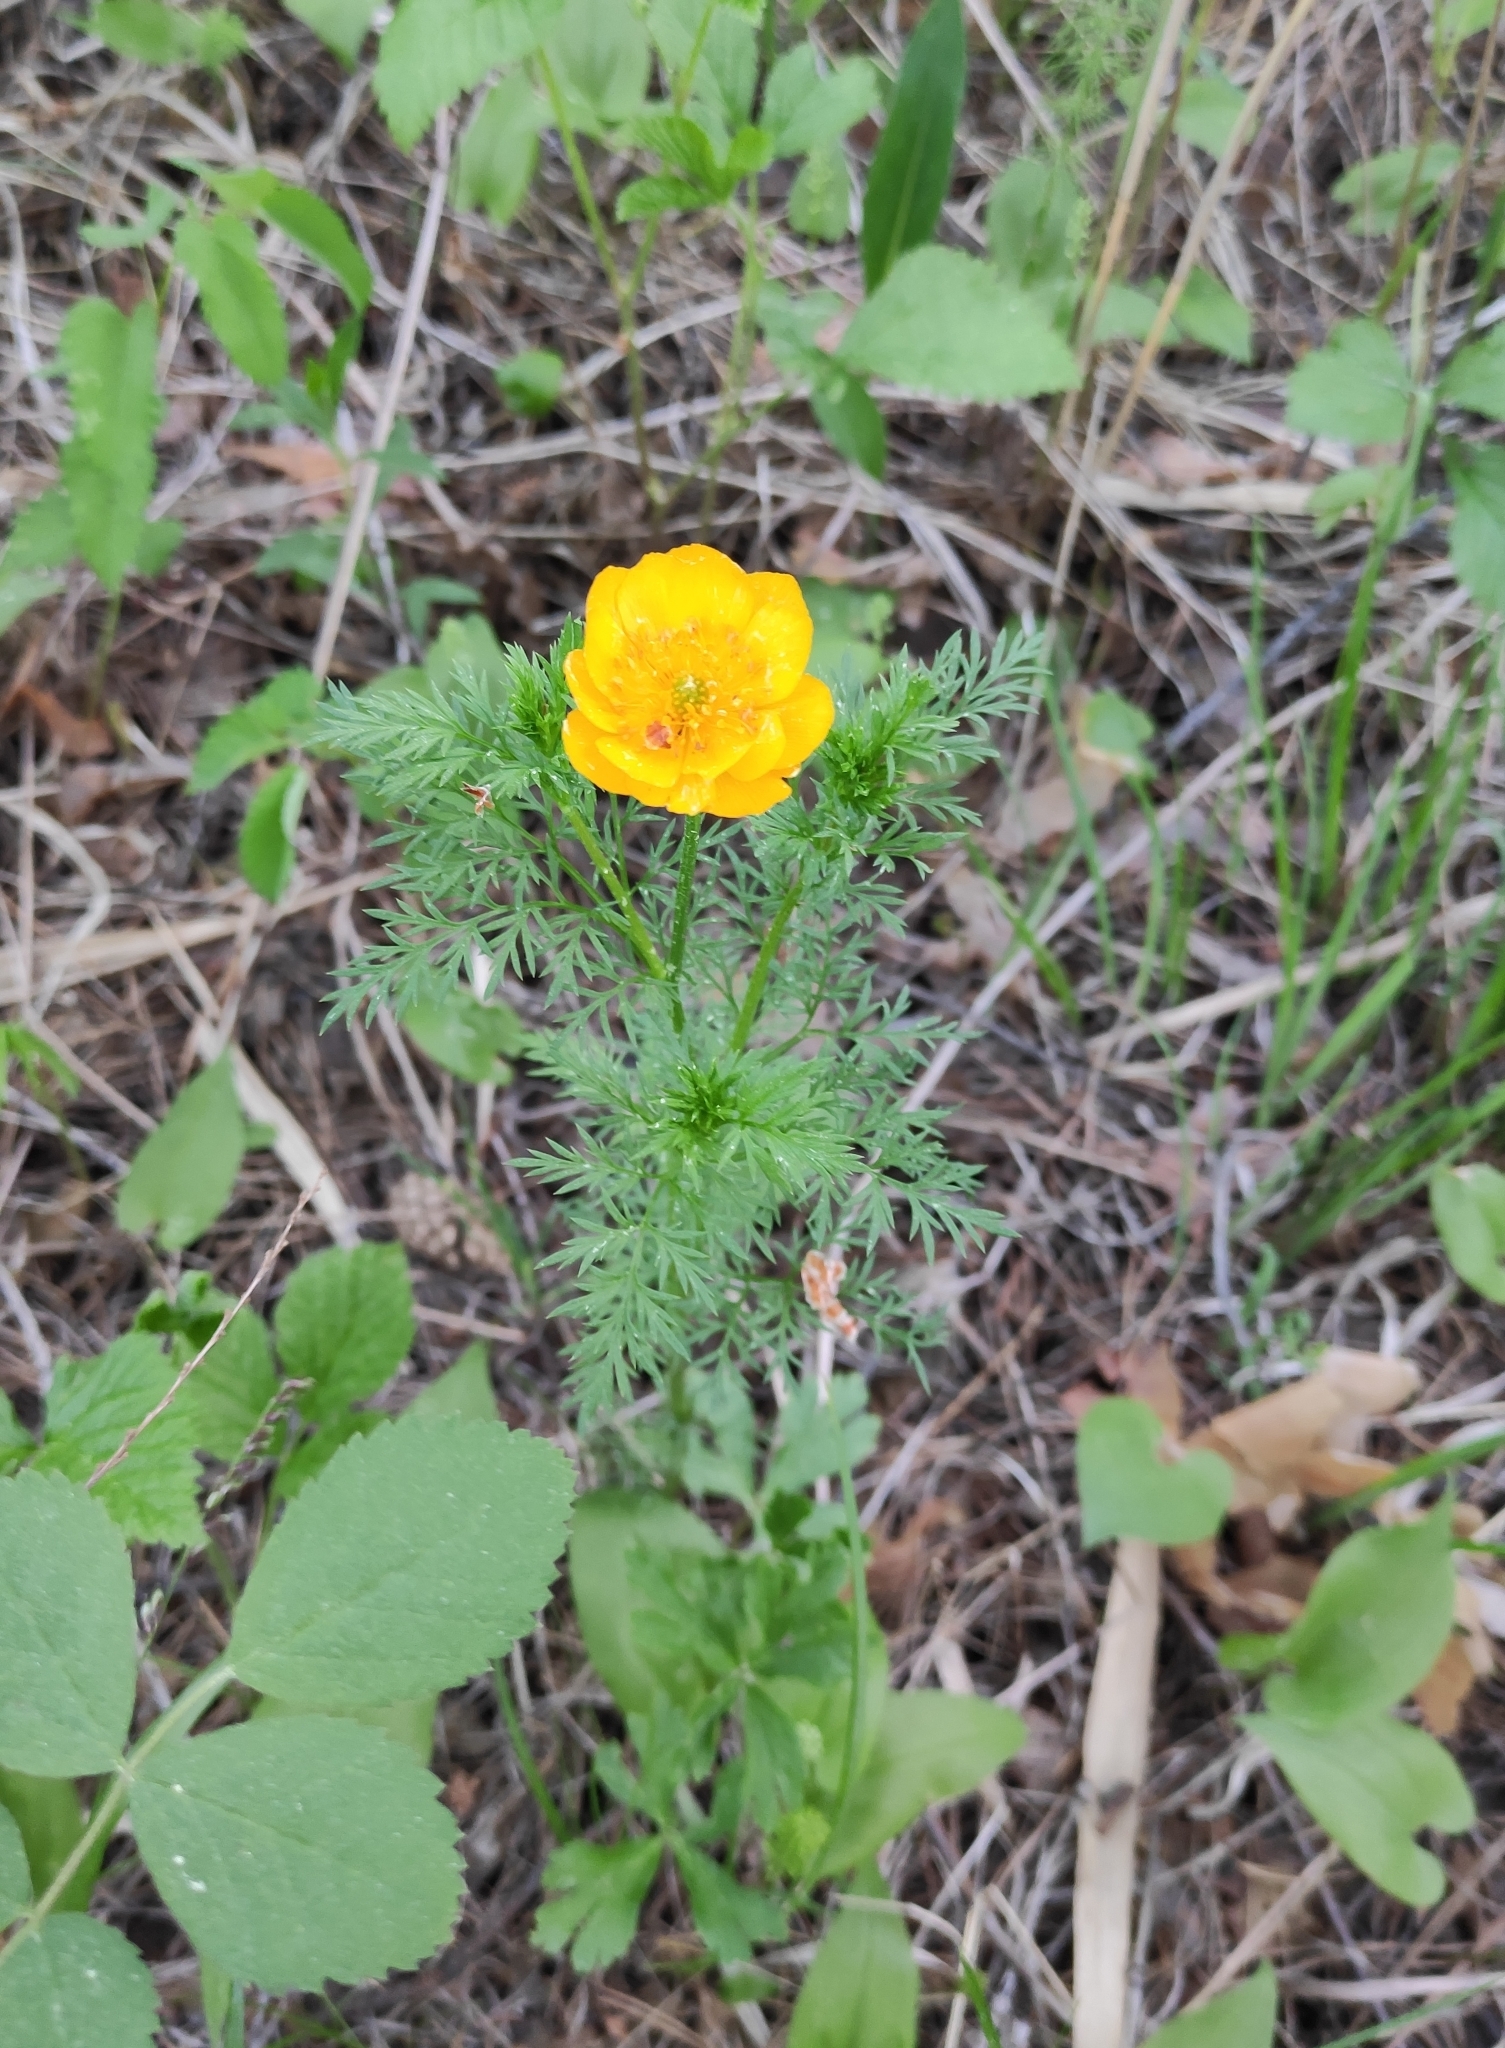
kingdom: Plantae
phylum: Tracheophyta
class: Magnoliopsida
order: Ranunculales
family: Ranunculaceae
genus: Adonis
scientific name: Adonis
